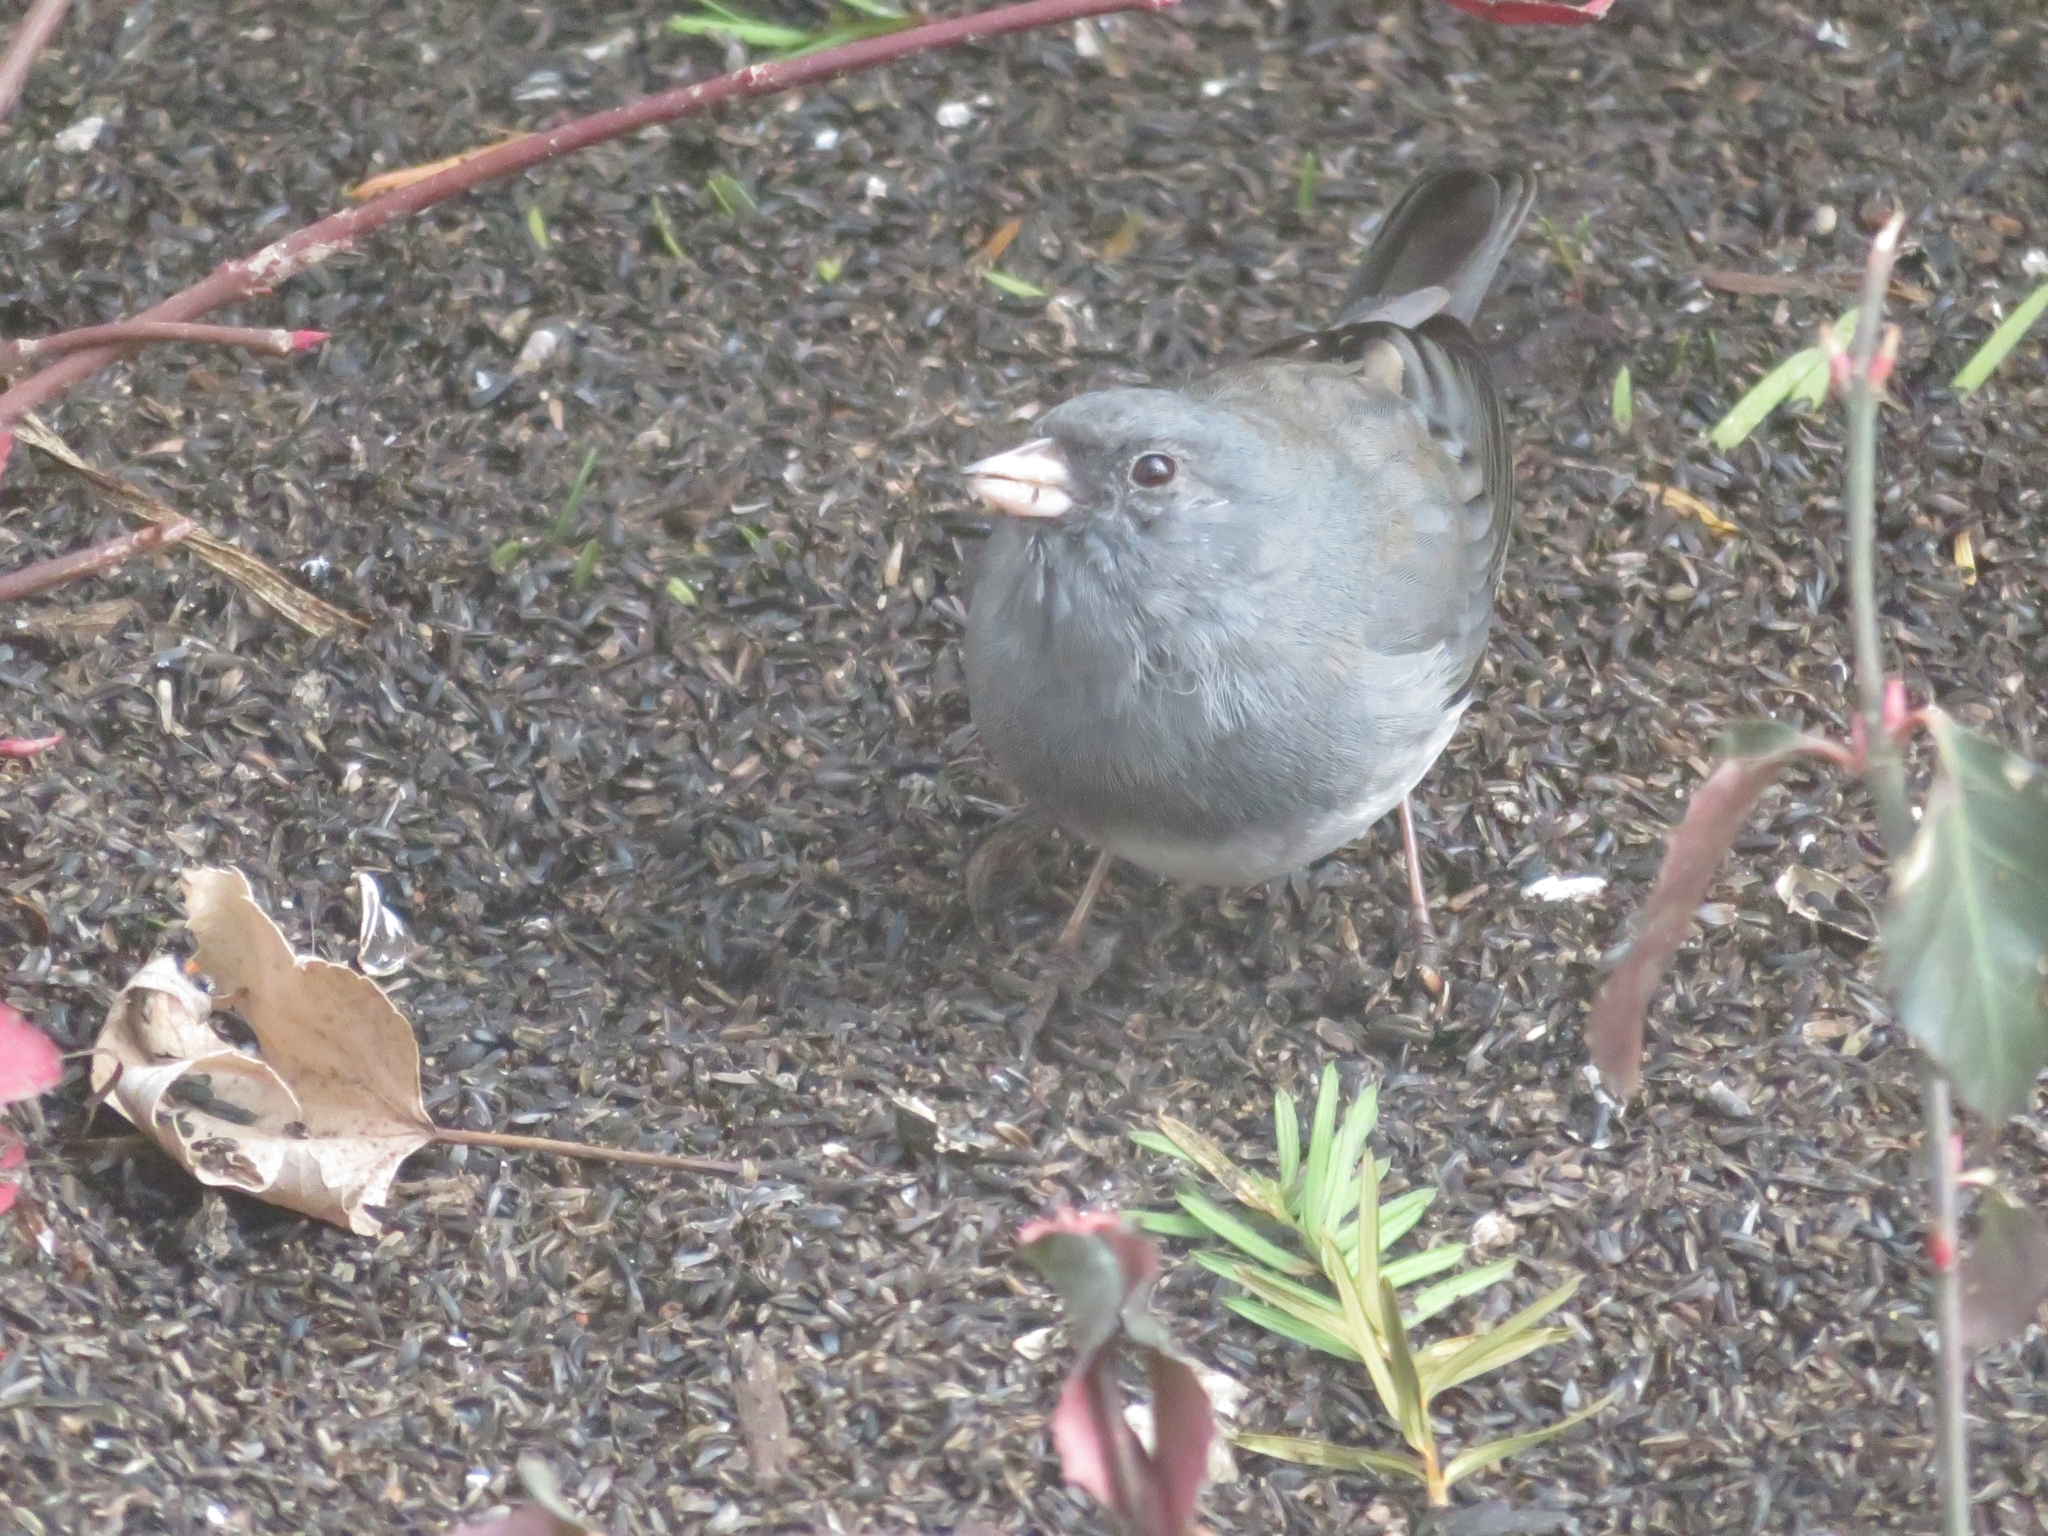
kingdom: Animalia
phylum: Chordata
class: Aves
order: Passeriformes
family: Passerellidae
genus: Junco
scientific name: Junco hyemalis
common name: Dark-eyed junco
